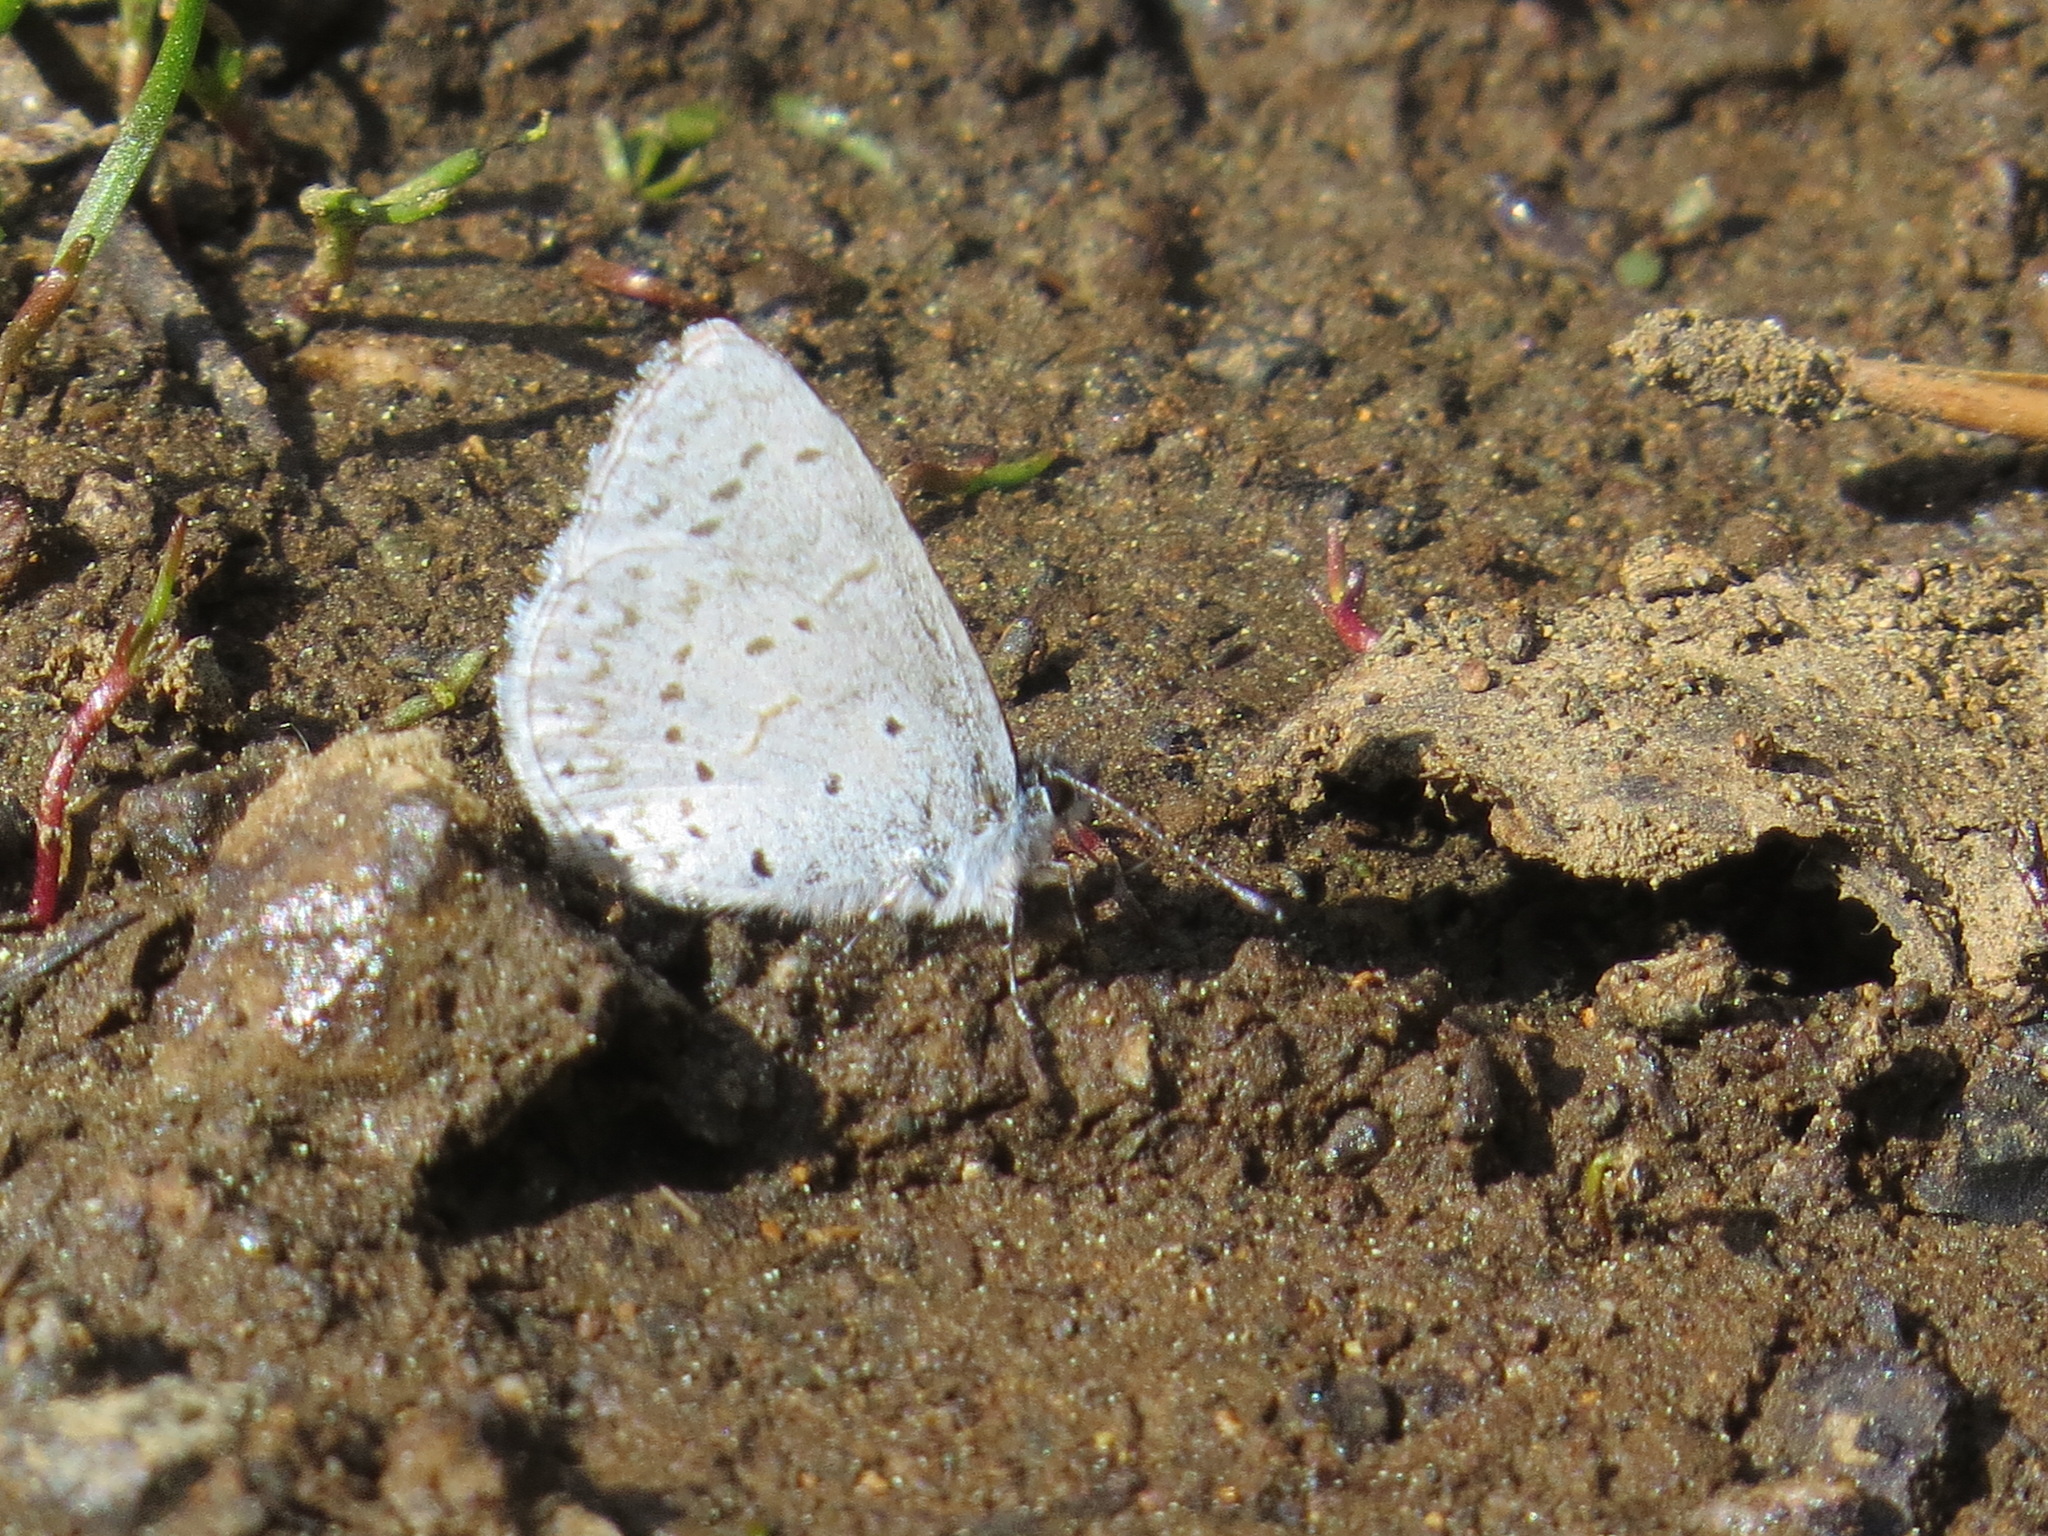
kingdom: Animalia
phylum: Arthropoda
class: Insecta
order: Lepidoptera
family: Lycaenidae
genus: Celastrina
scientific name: Celastrina ladon
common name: Spring azure
